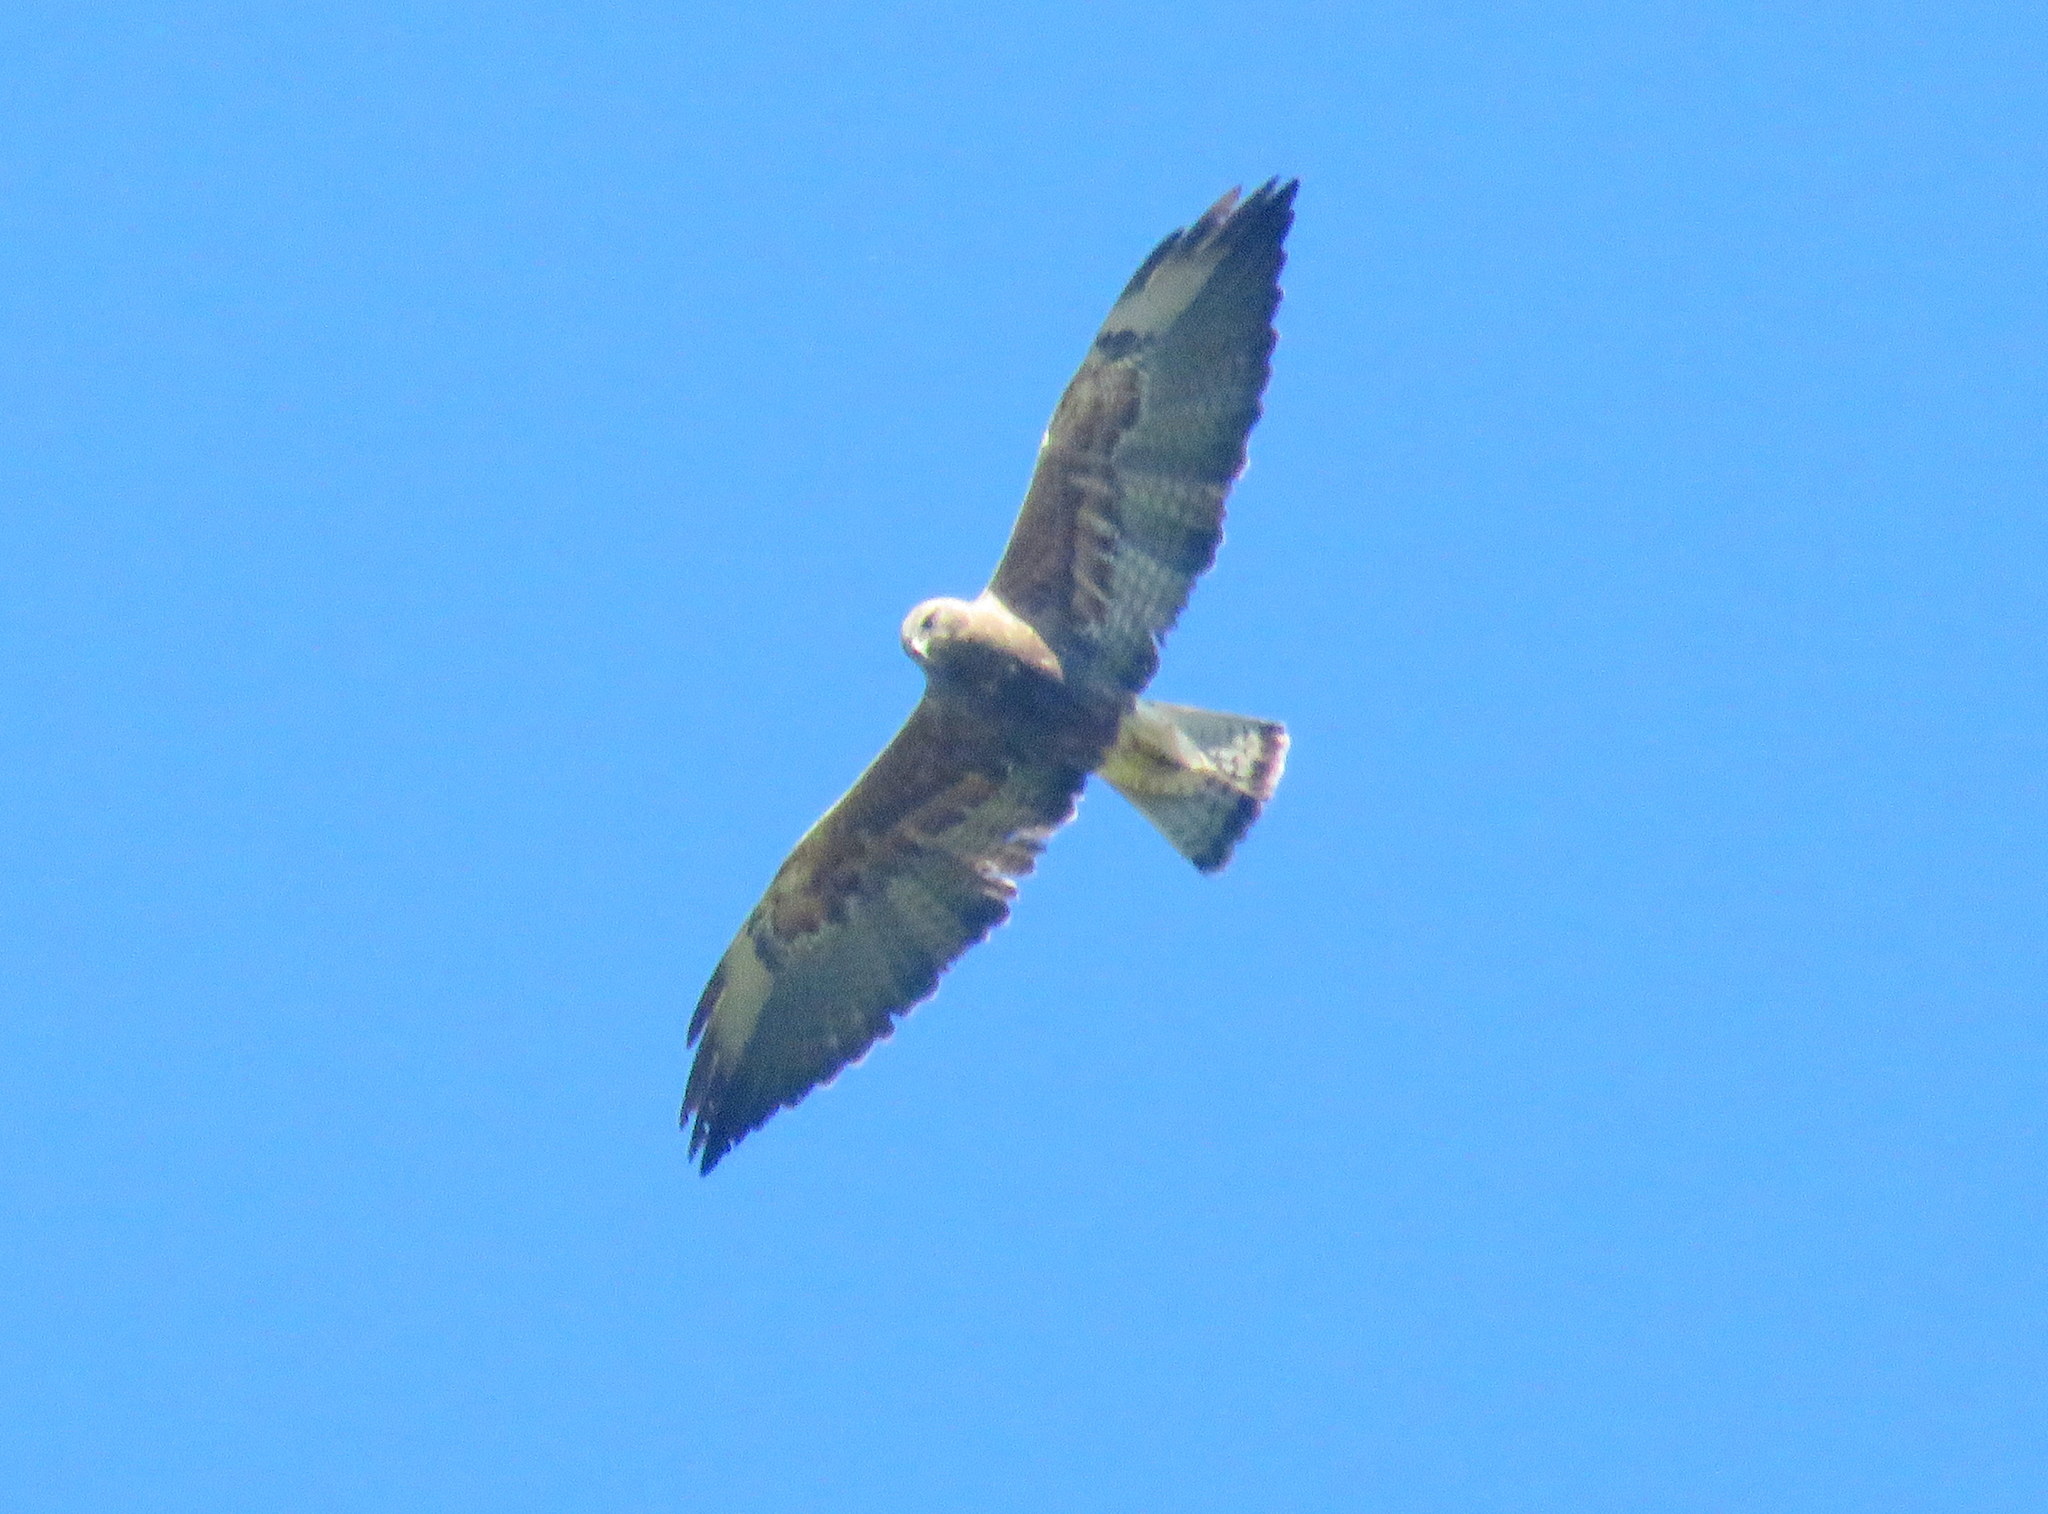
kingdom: Animalia
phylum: Chordata
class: Aves
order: Accipitriformes
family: Accipitridae
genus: Buteo
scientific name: Buteo swainsoni
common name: Swainson's hawk
